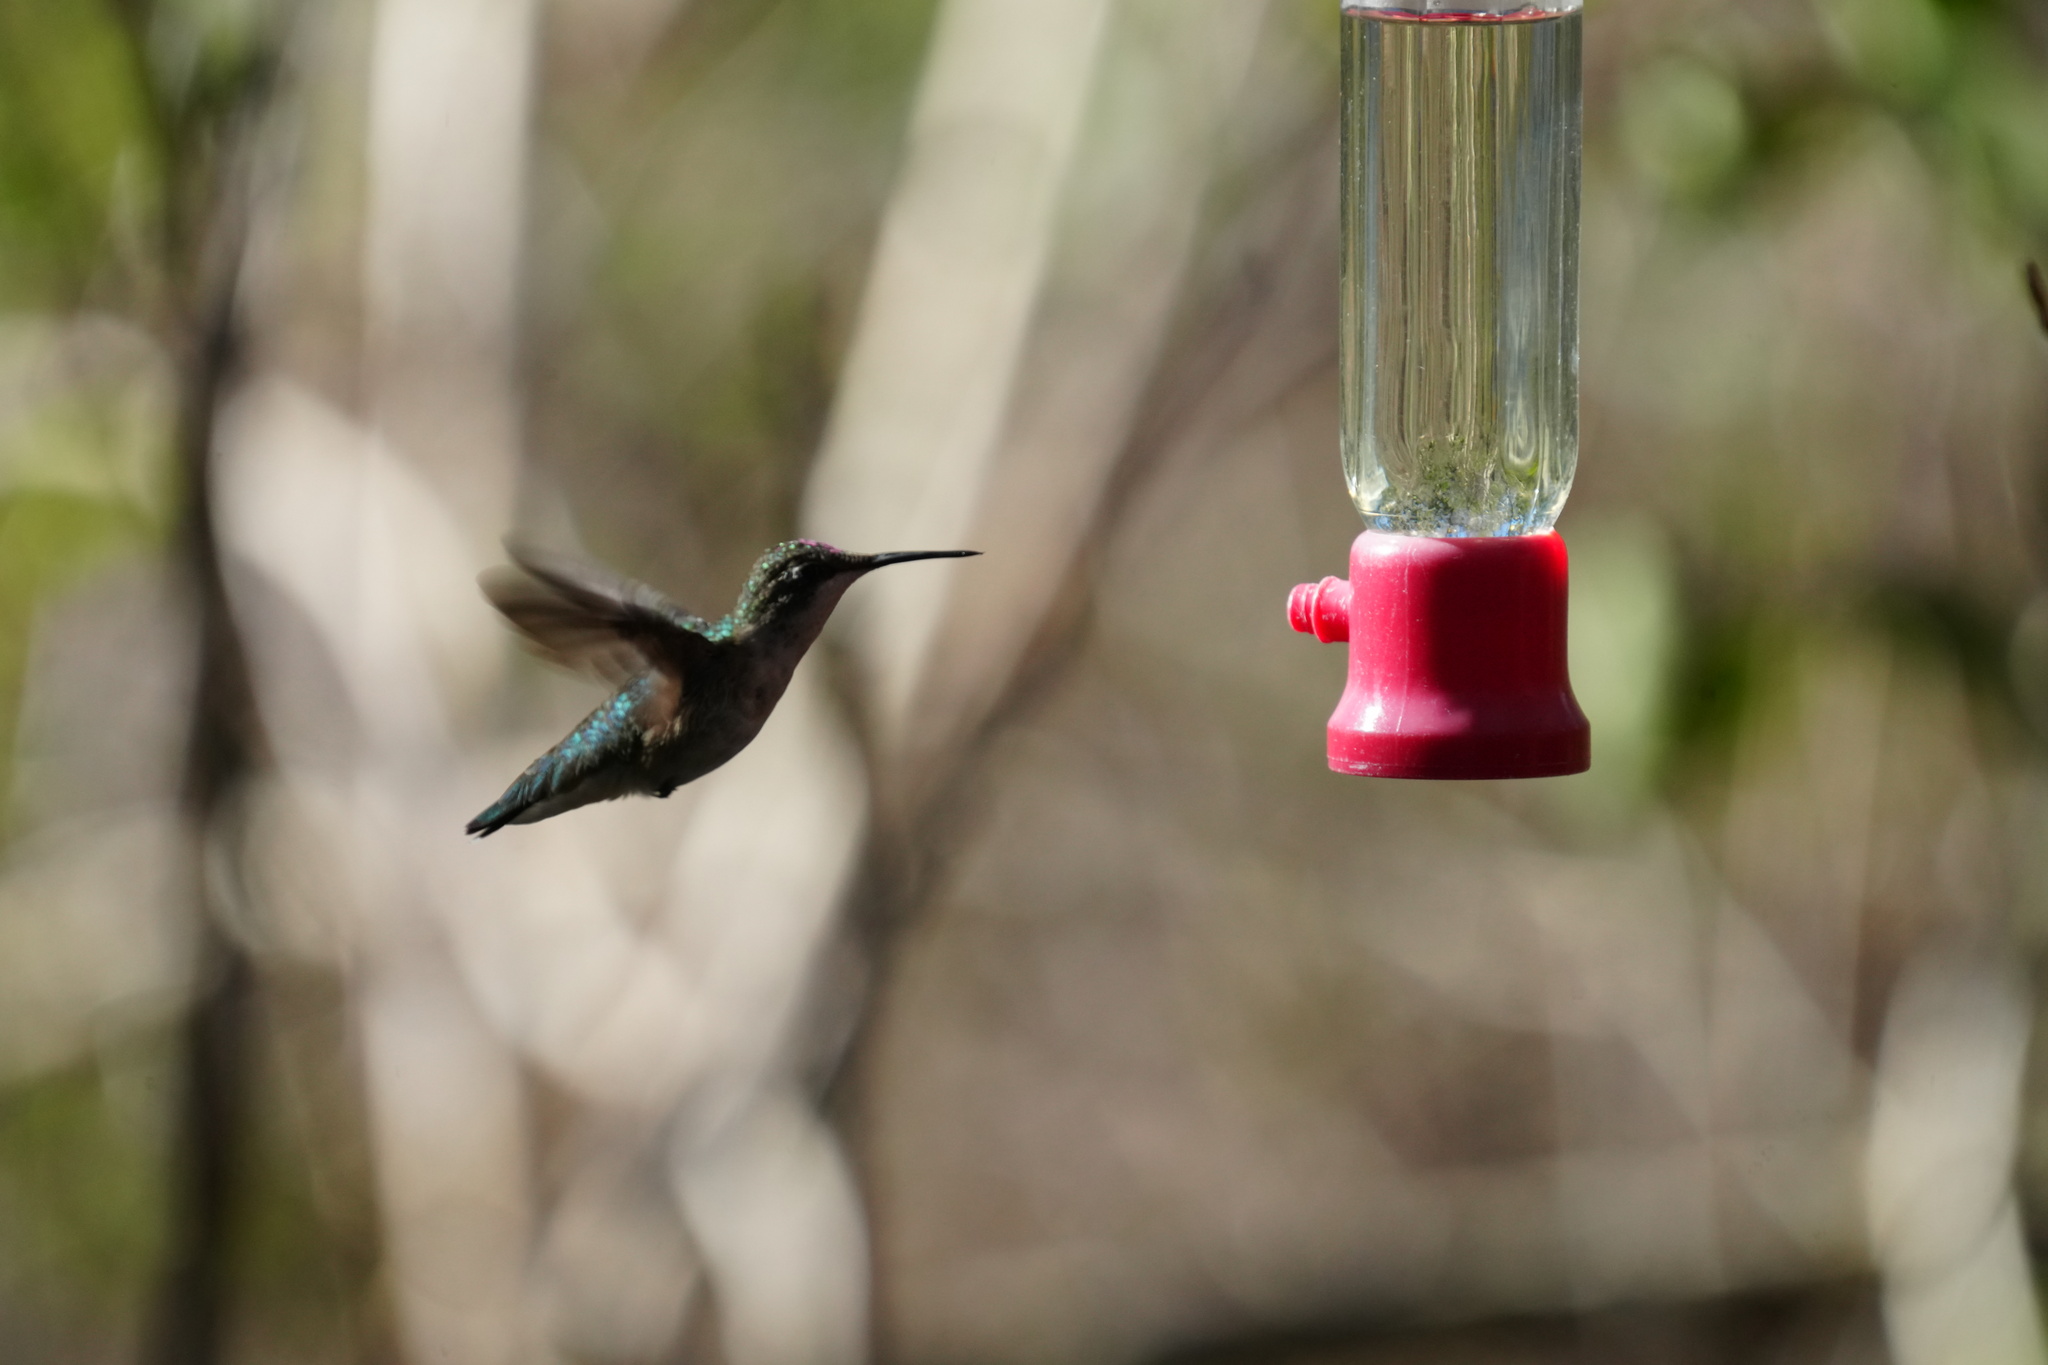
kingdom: Animalia
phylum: Chordata
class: Aves
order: Apodiformes
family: Trochilidae
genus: Archilochus
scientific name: Archilochus colubris
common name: Ruby-throated hummingbird
